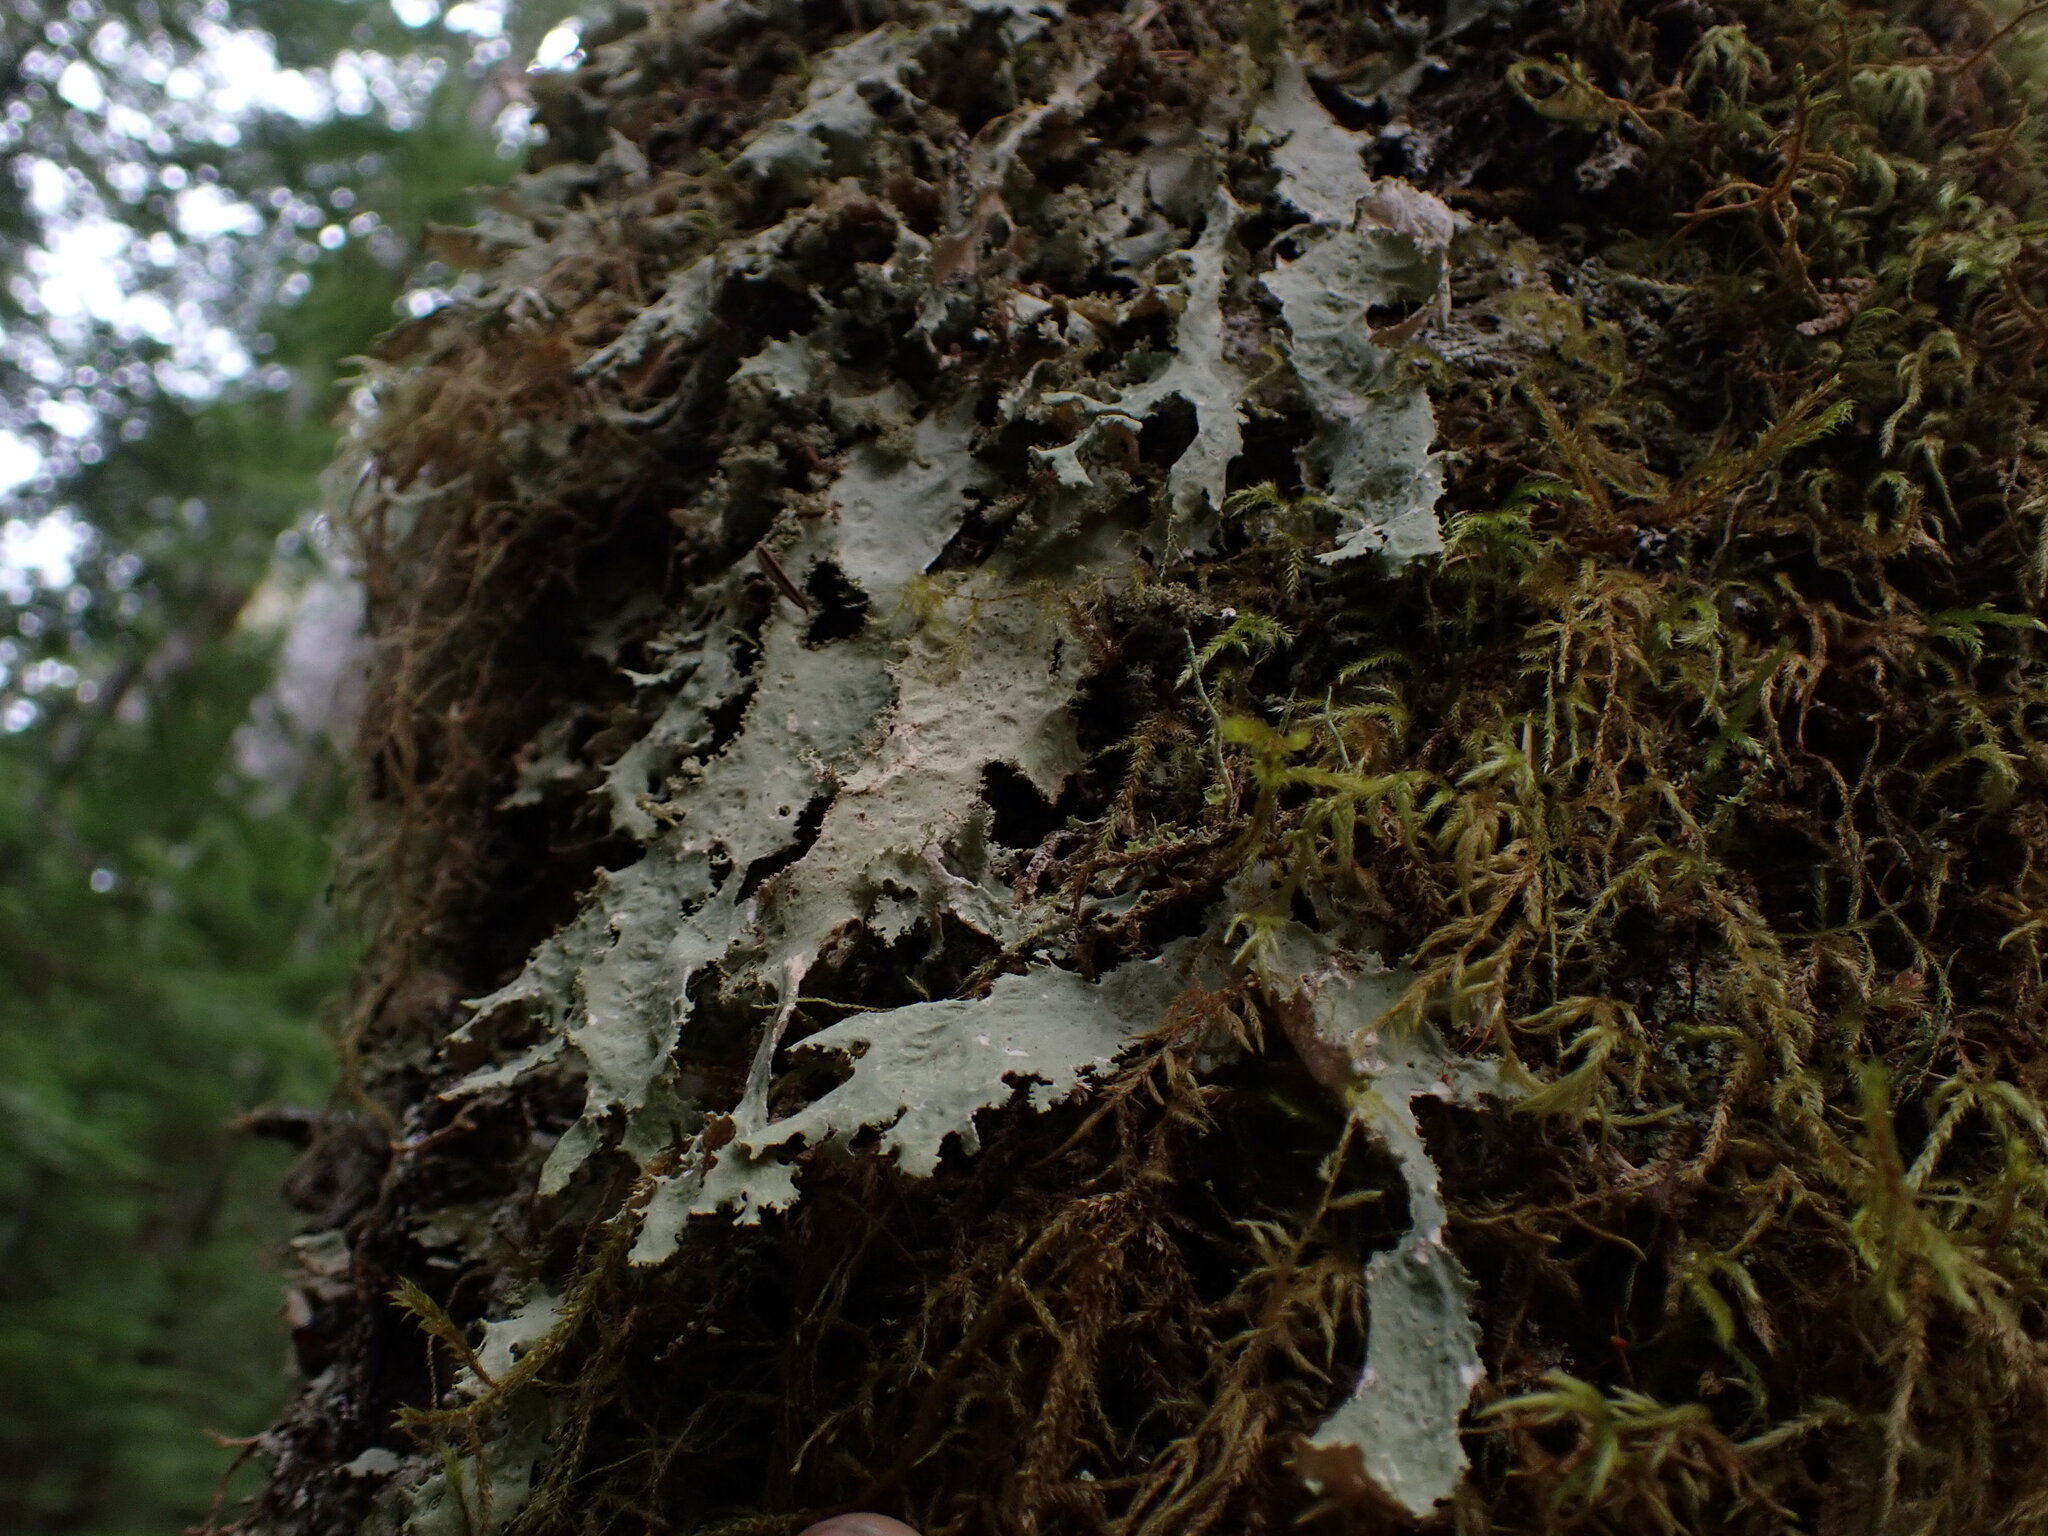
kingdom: Fungi
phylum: Ascomycota
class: Lecanoromycetes
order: Peltigerales
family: Lobariaceae
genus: Pseudocyphellaria
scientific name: Pseudocyphellaria rainierensis
